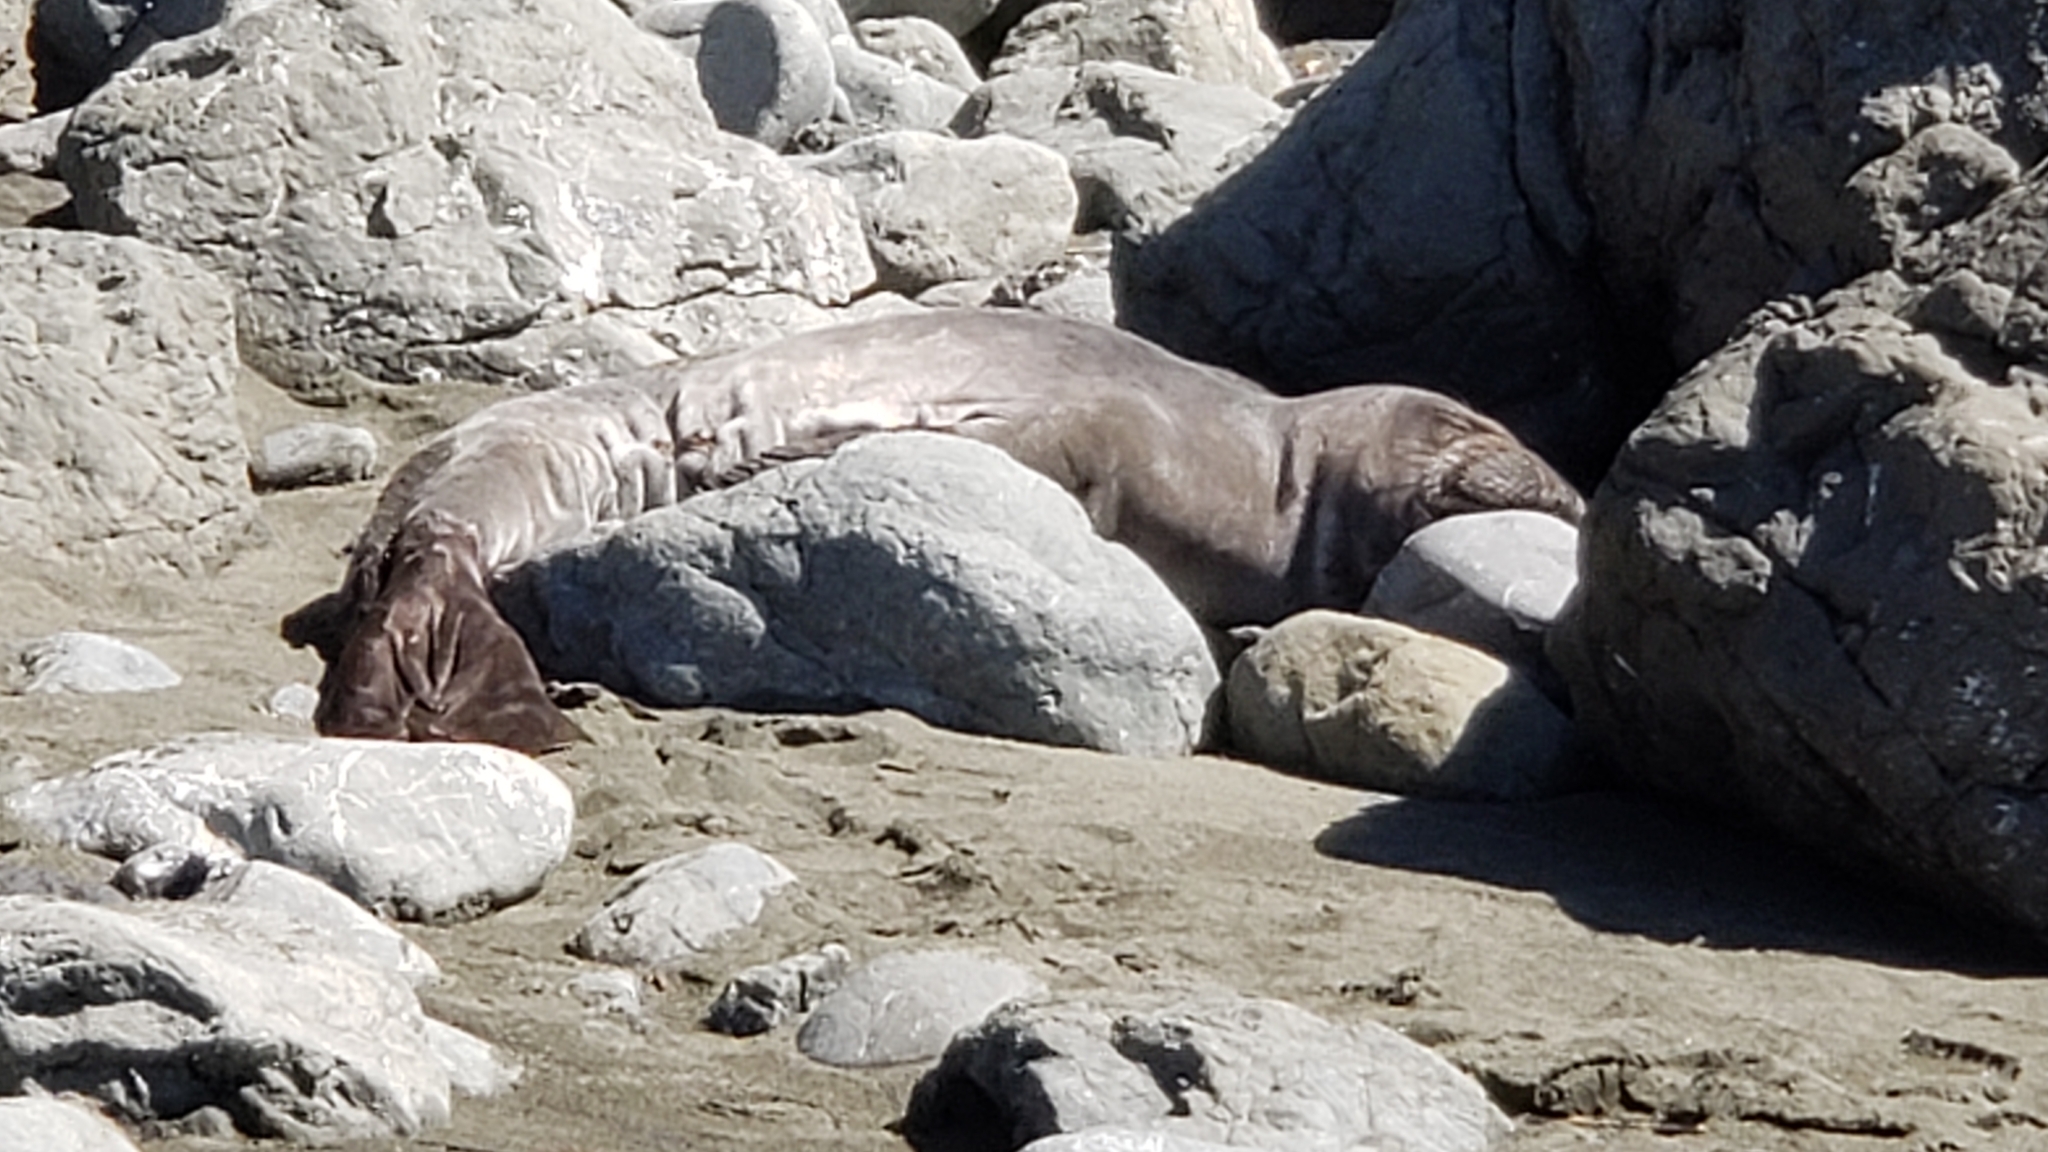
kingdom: Animalia
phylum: Chordata
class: Mammalia
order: Carnivora
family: Phocidae
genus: Mirounga
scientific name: Mirounga angustirostris
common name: Northern elephant seal
